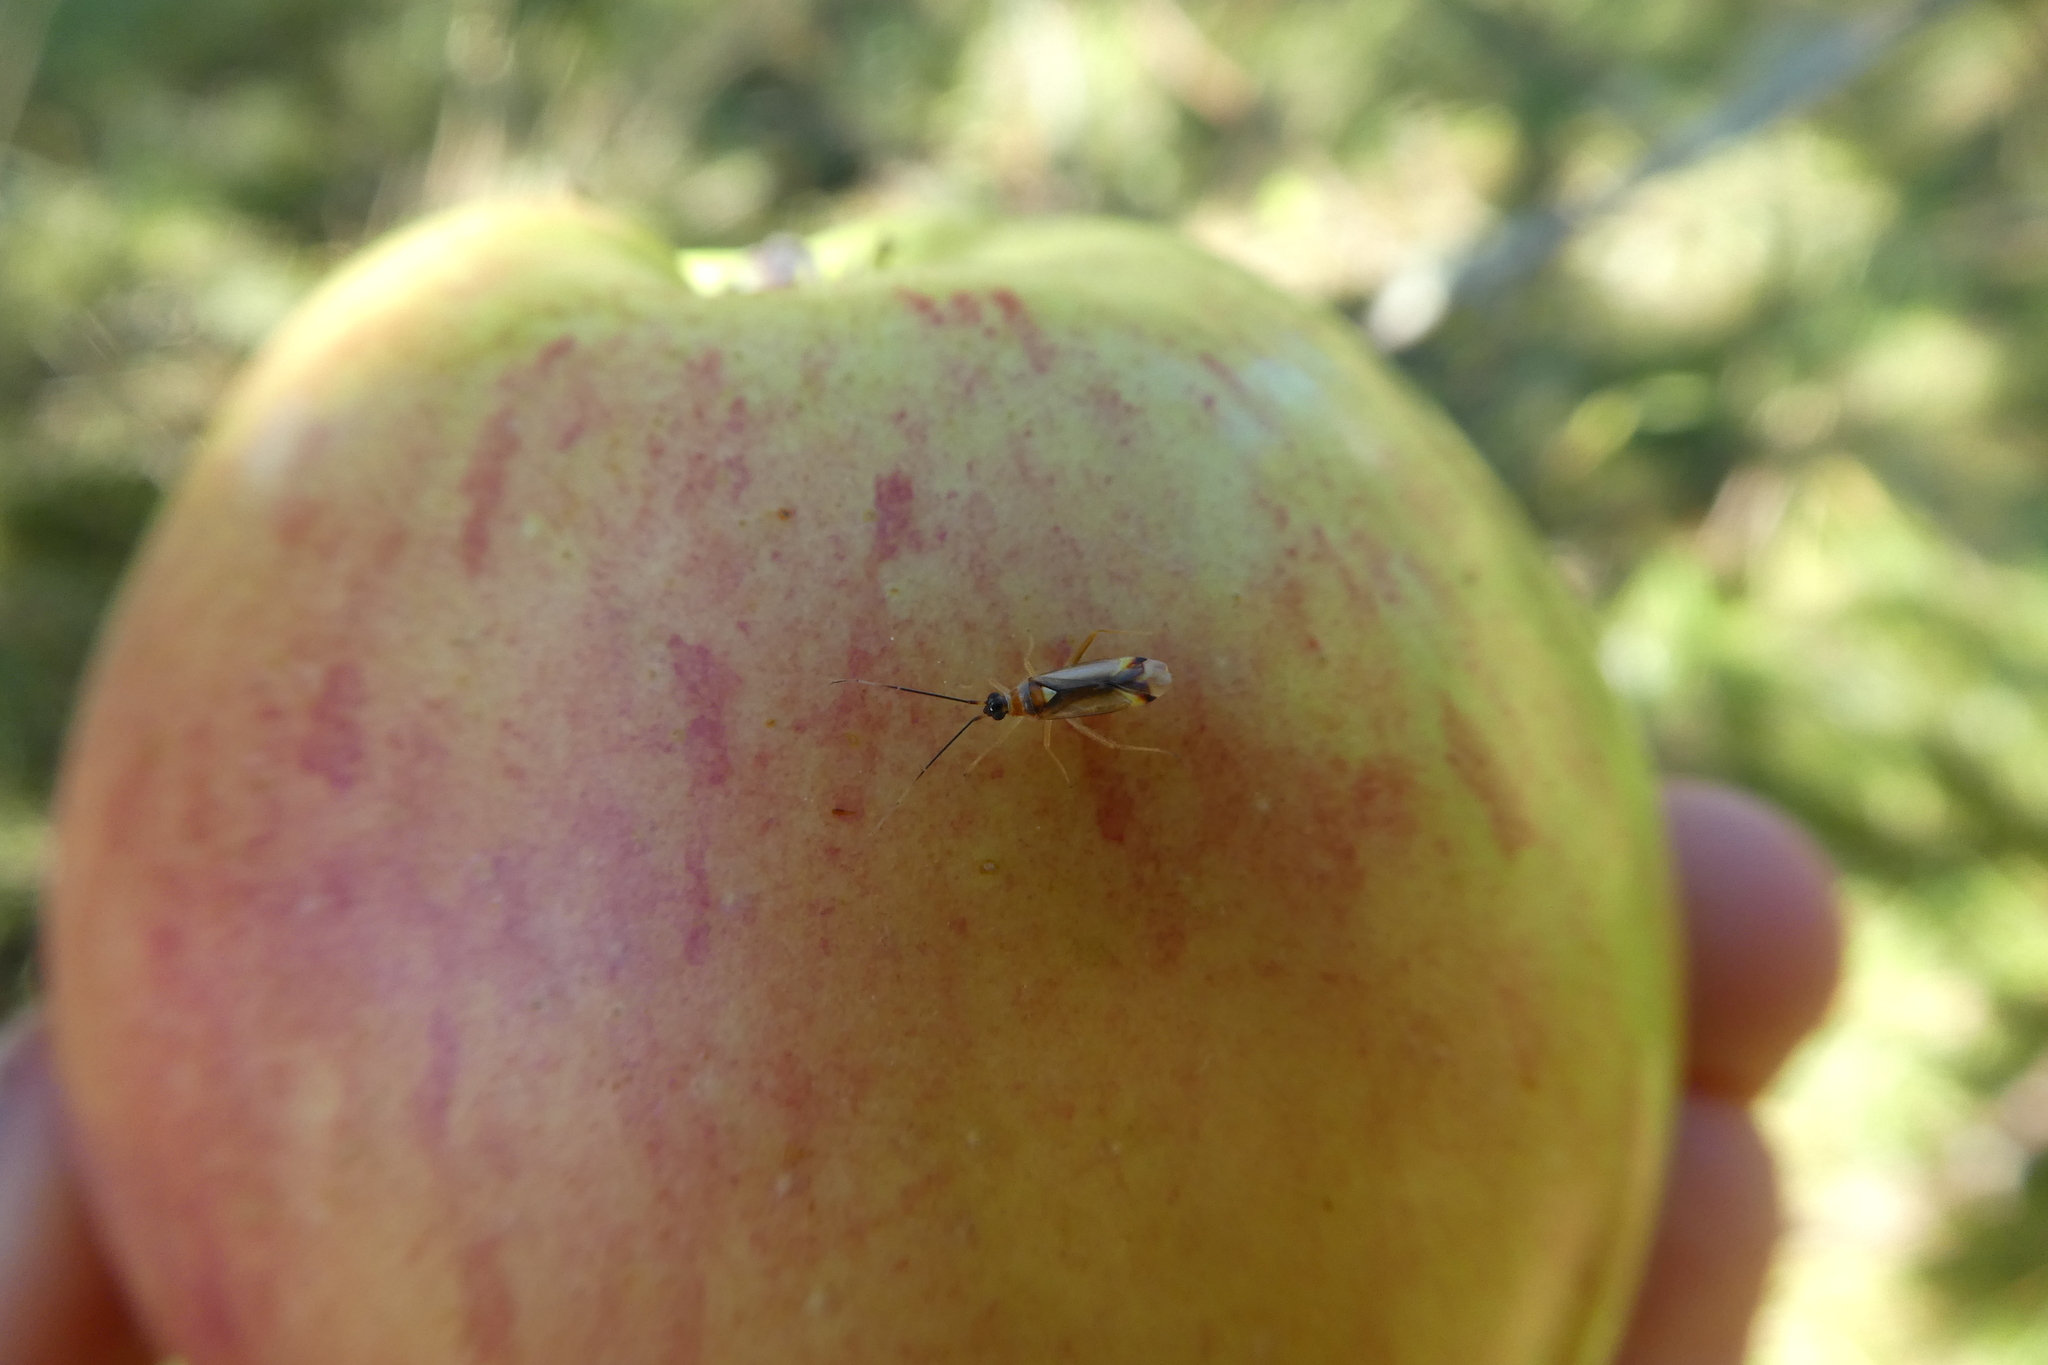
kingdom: Animalia
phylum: Arthropoda
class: Insecta
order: Hemiptera
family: Miridae
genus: Campyloneura
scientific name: Campyloneura virgula
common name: Predatory bug
